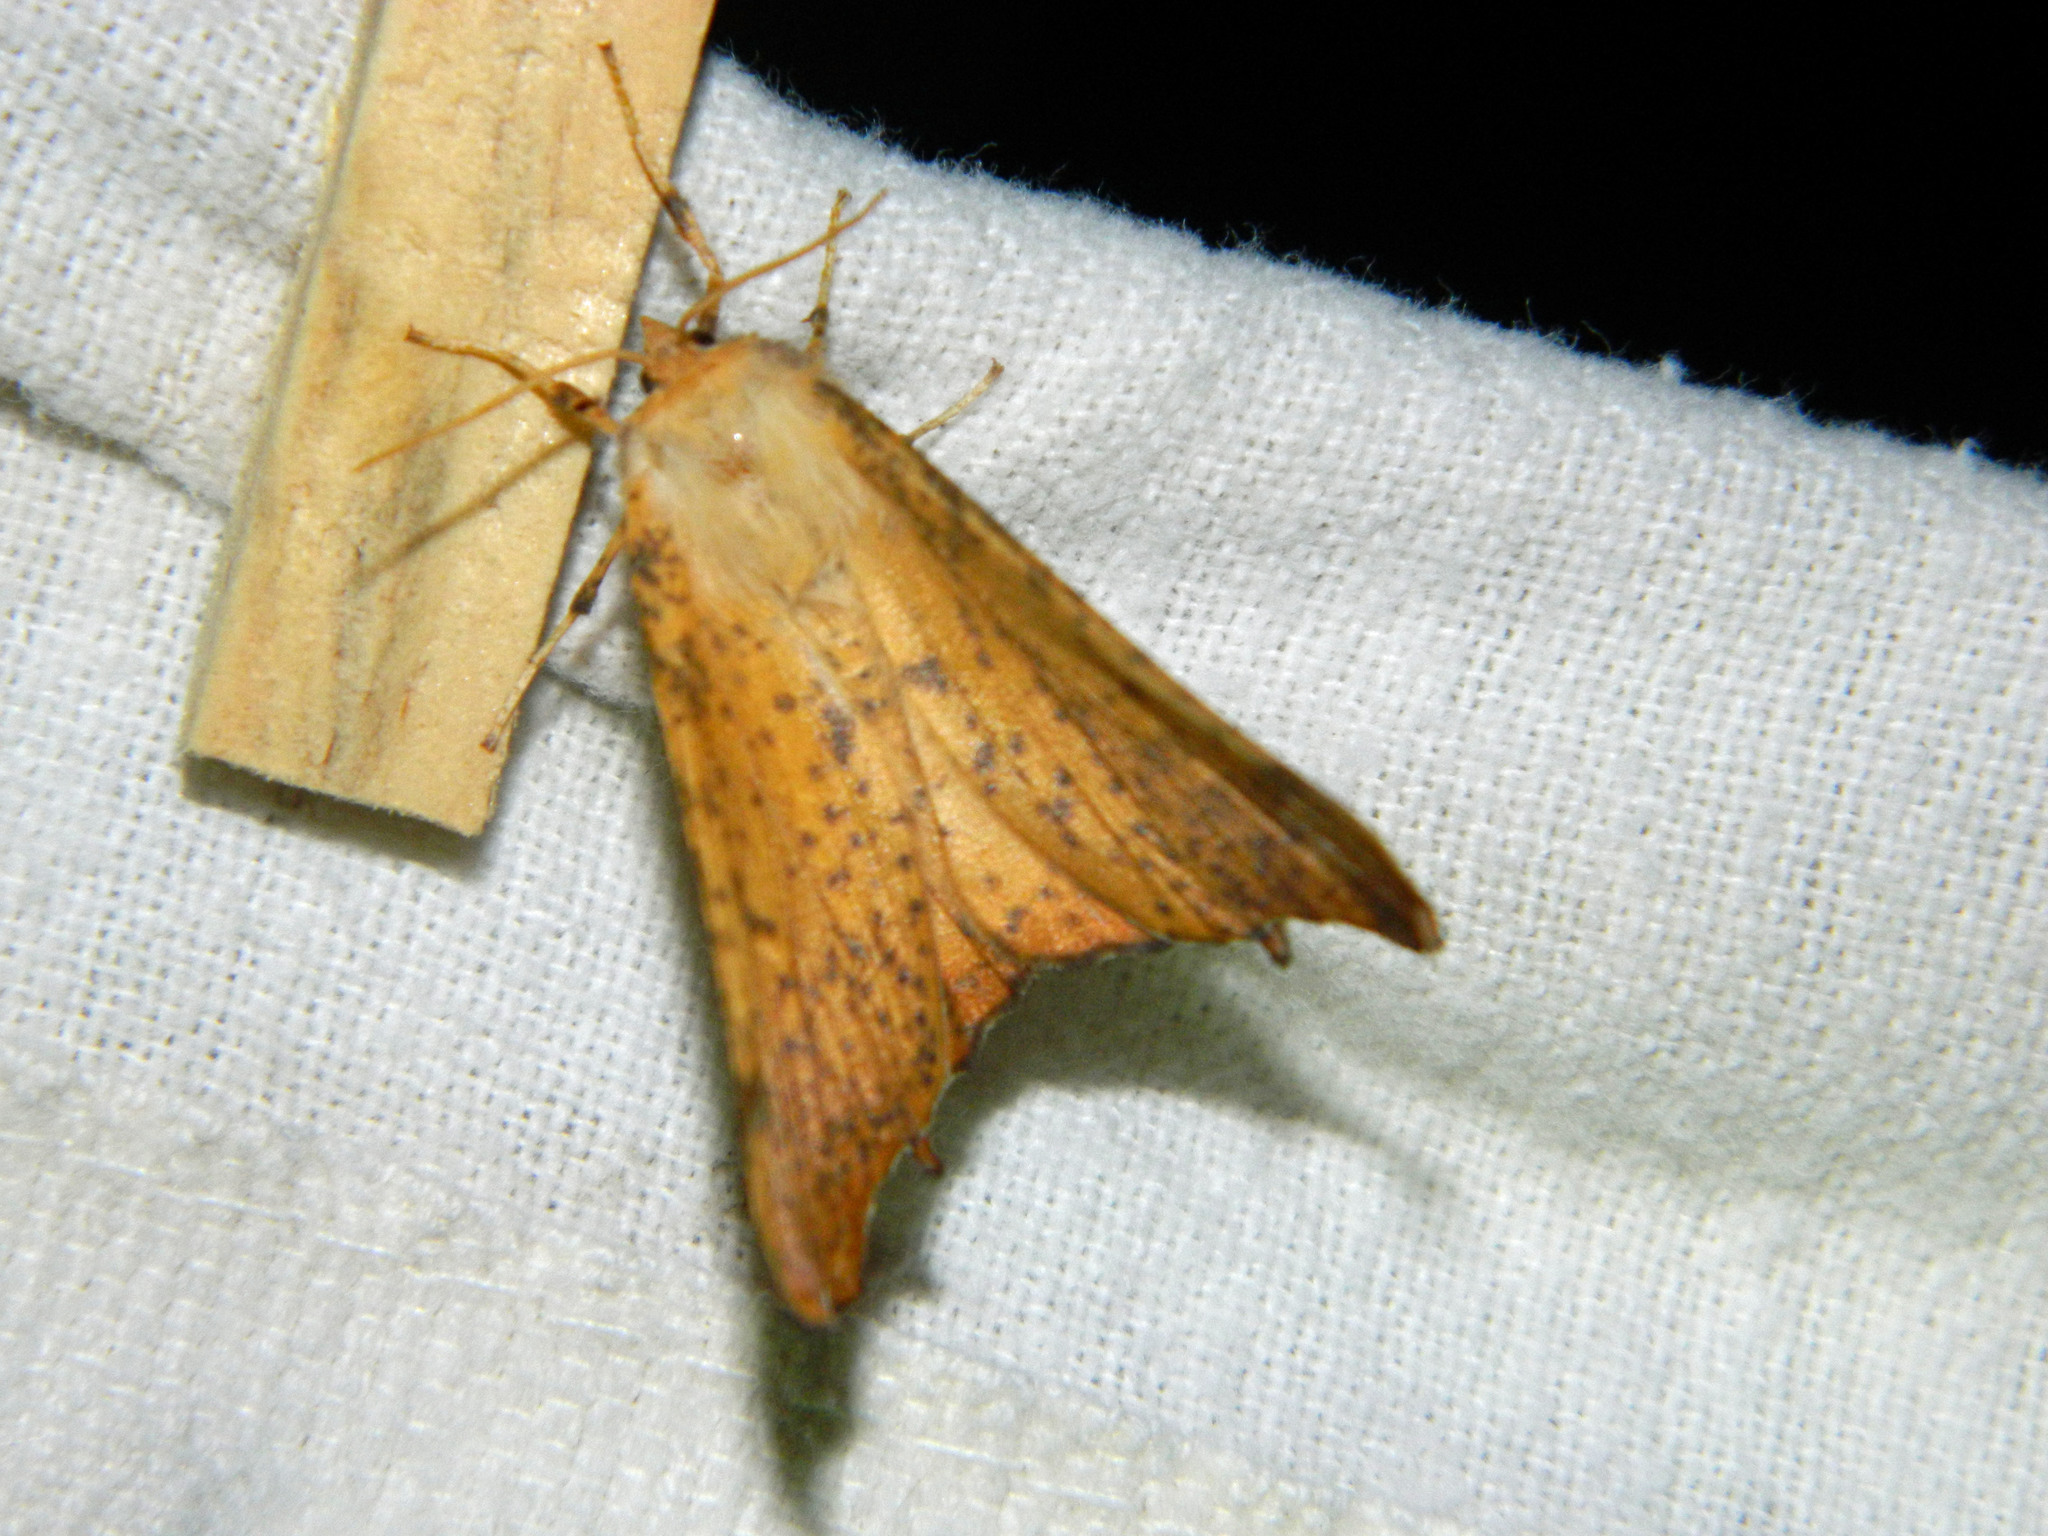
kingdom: Animalia
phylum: Arthropoda
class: Insecta
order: Lepidoptera
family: Geometridae
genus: Ennomos
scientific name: Ennomos magnaria
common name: Maple spanworm
